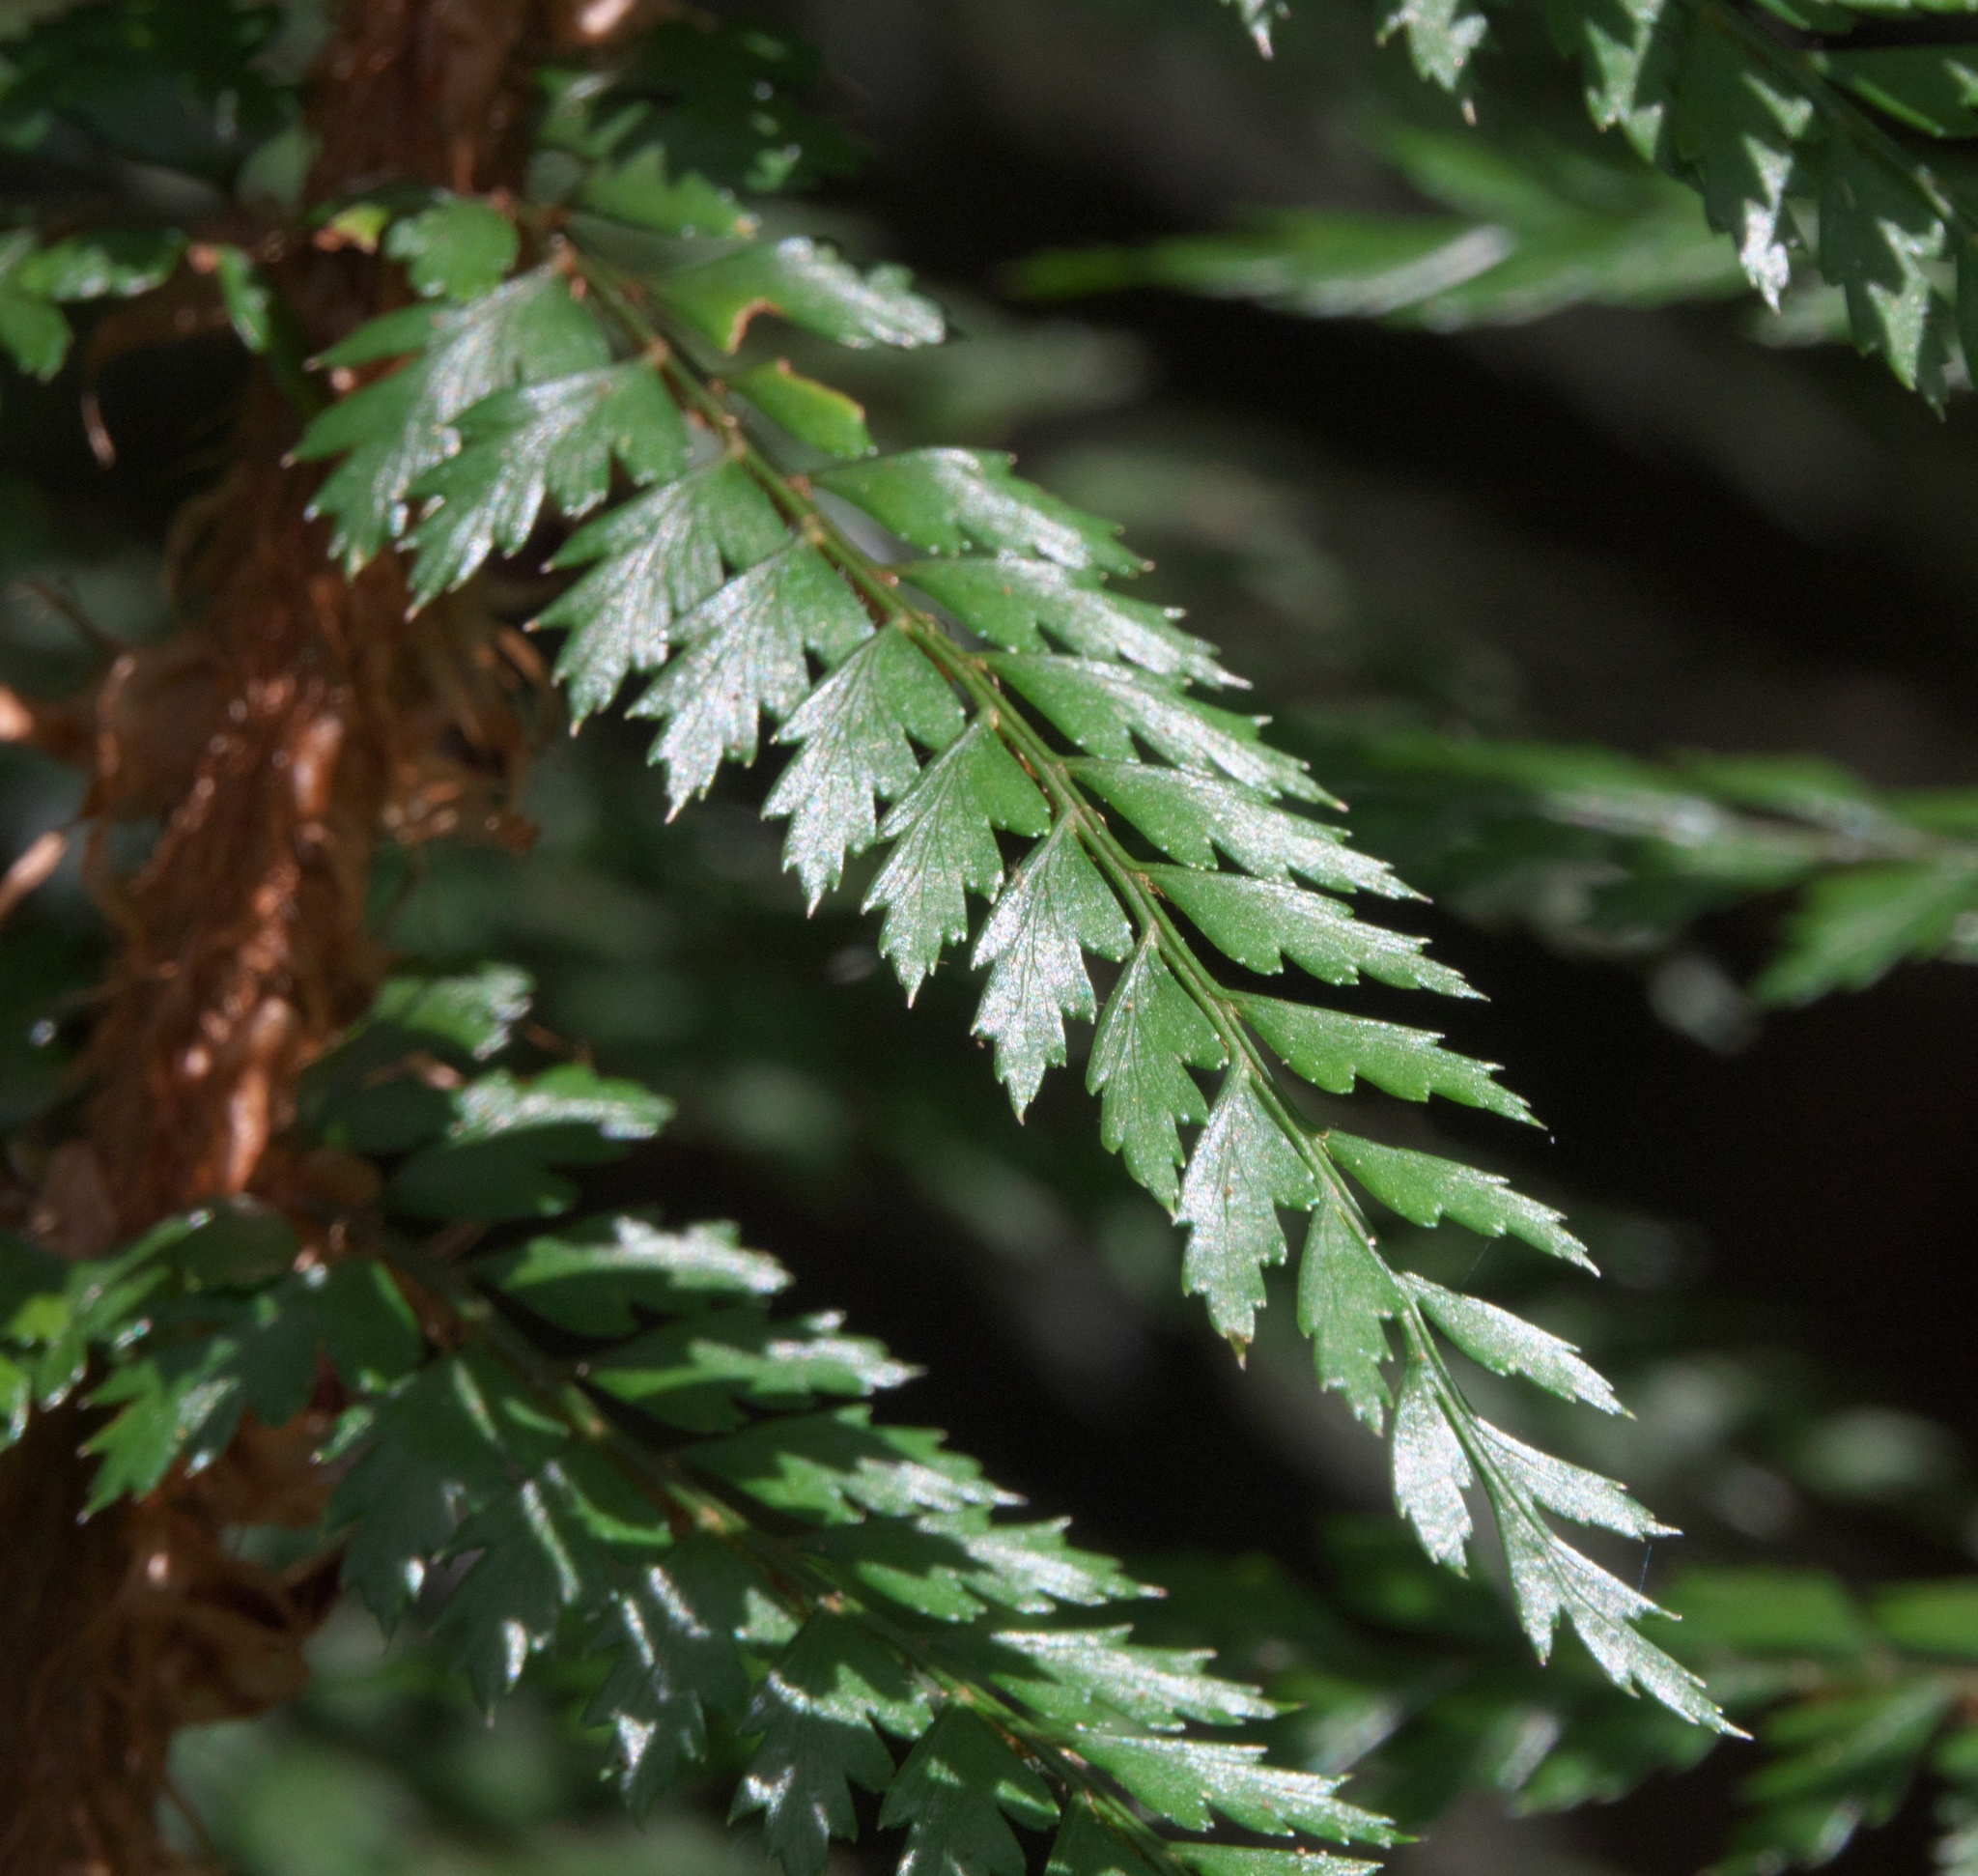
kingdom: Plantae
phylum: Tracheophyta
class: Polypodiopsida
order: Polypodiales
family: Dryopteridaceae
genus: Polystichum
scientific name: Polystichum vestitum
